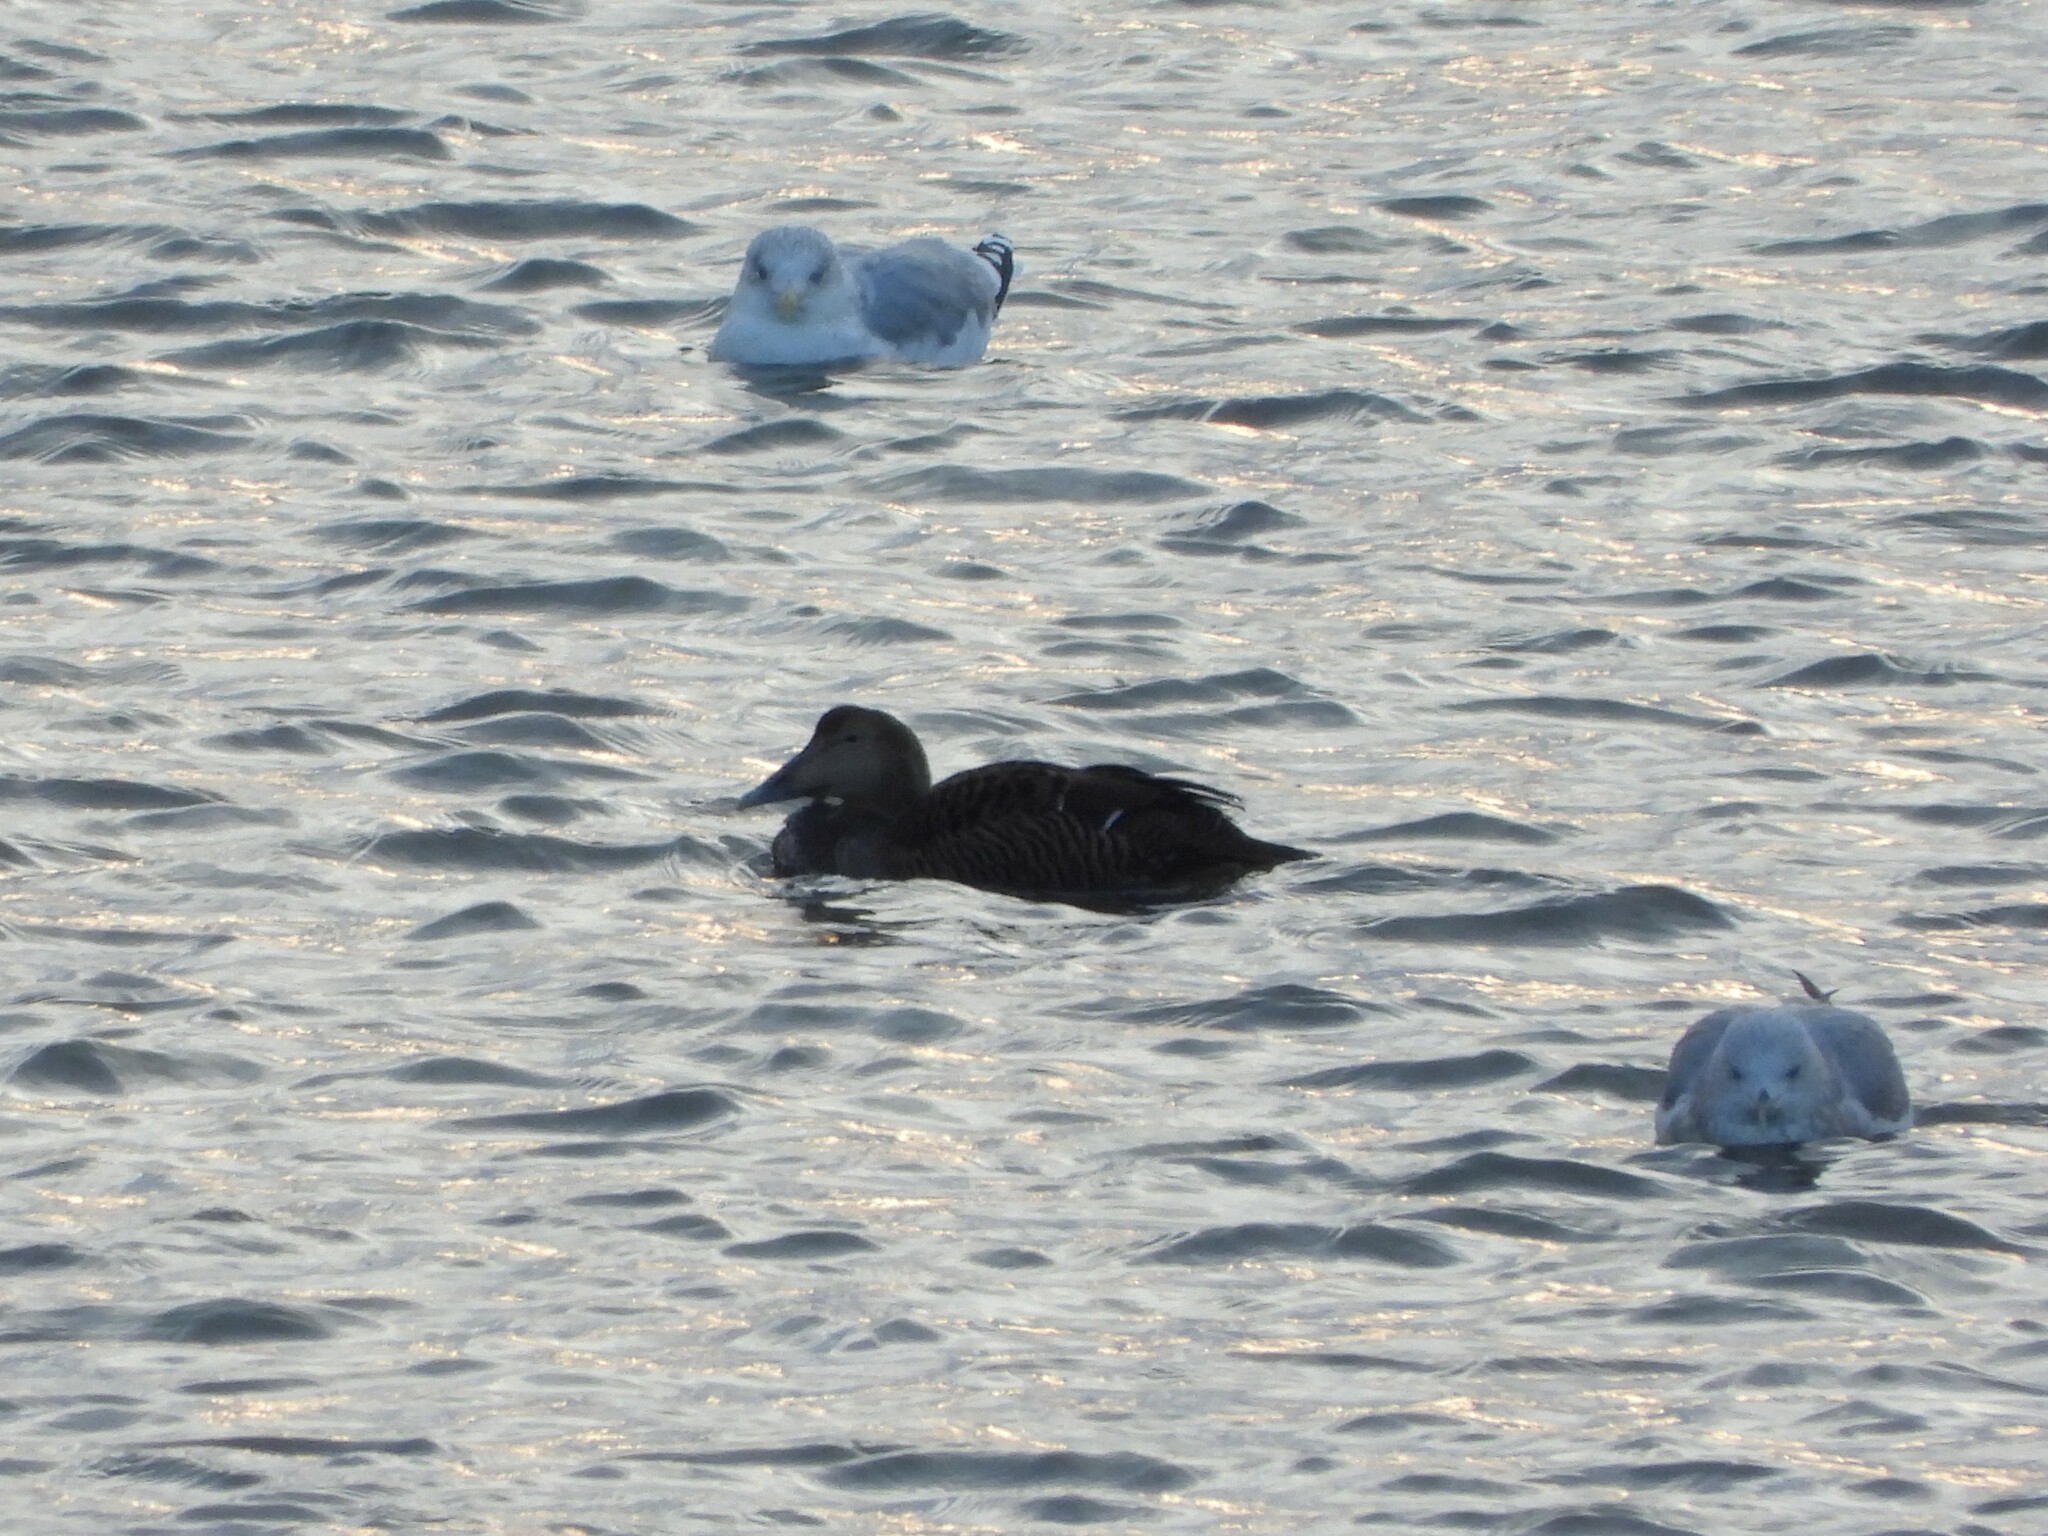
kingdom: Animalia
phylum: Chordata
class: Aves
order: Anseriformes
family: Anatidae
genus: Somateria
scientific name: Somateria mollissima
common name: Common eider
